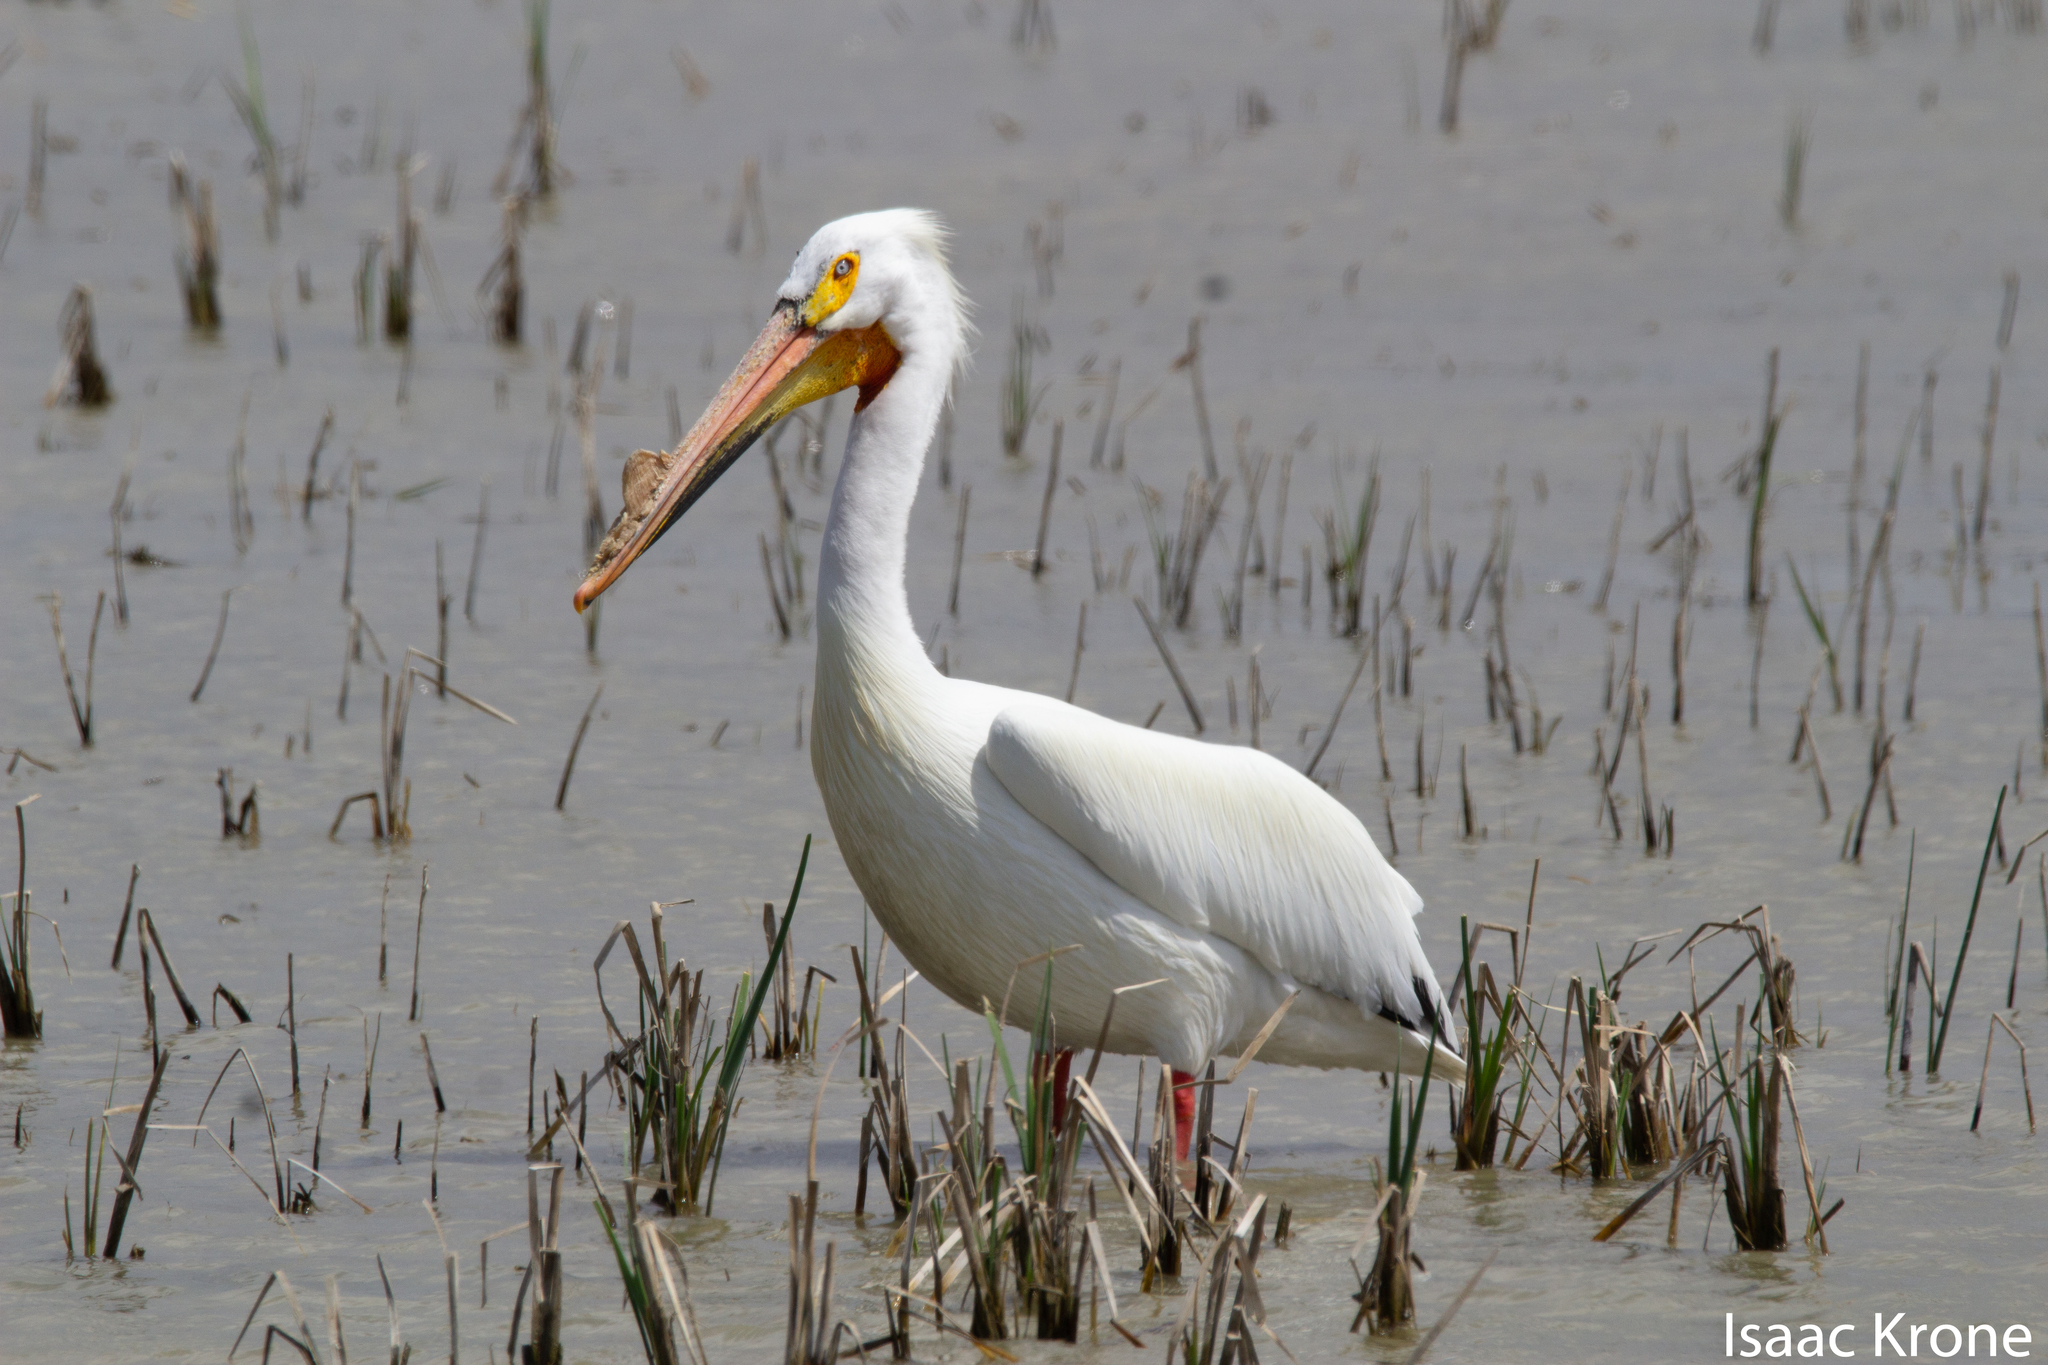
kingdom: Animalia
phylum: Chordata
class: Aves
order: Pelecaniformes
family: Pelecanidae
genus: Pelecanus
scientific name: Pelecanus erythrorhynchos
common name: American white pelican
